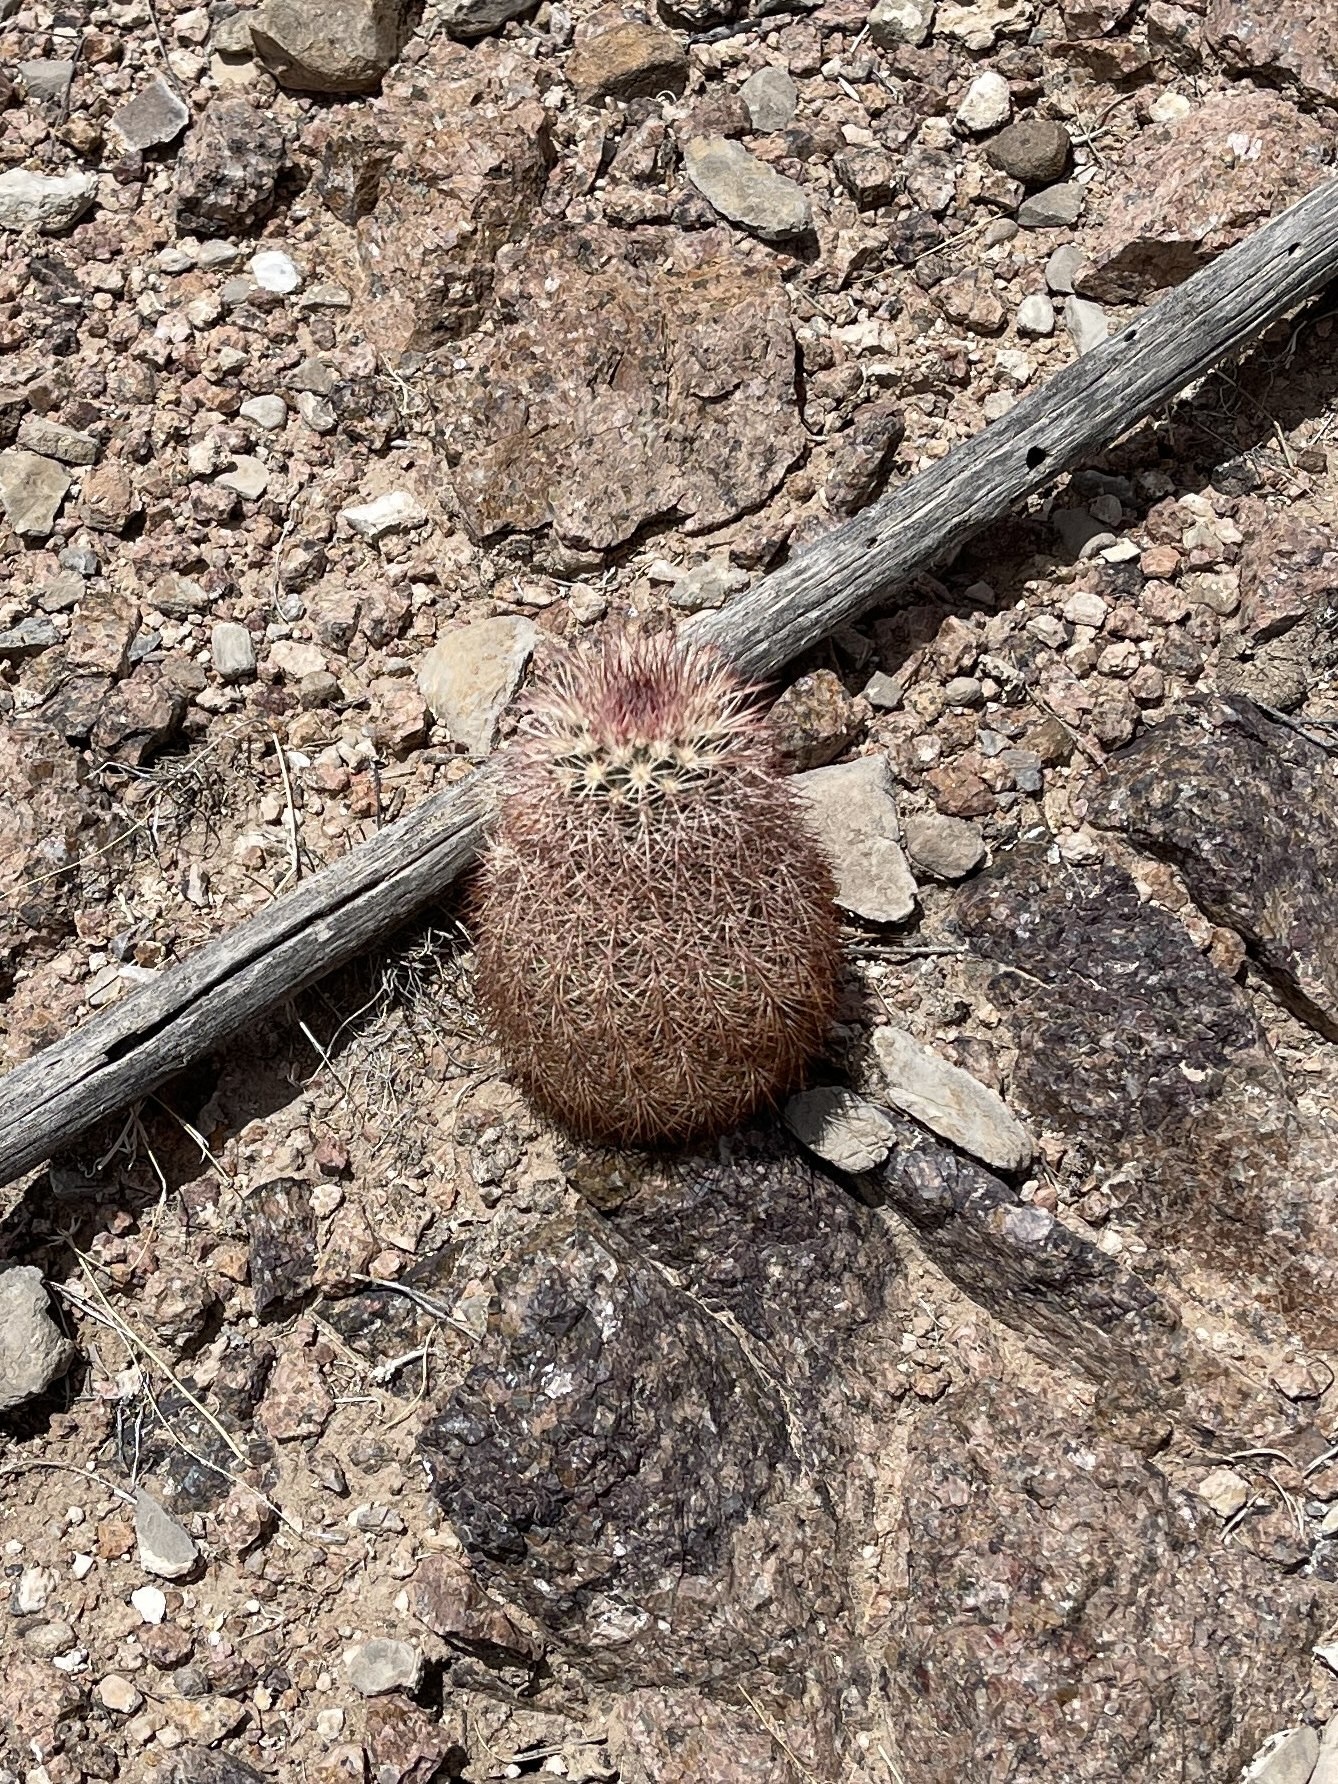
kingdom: Plantae
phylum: Tracheophyta
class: Magnoliopsida
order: Caryophyllales
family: Cactaceae
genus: Echinocereus
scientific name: Echinocereus dasyacanthus
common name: Spiny hedgehog cactus
